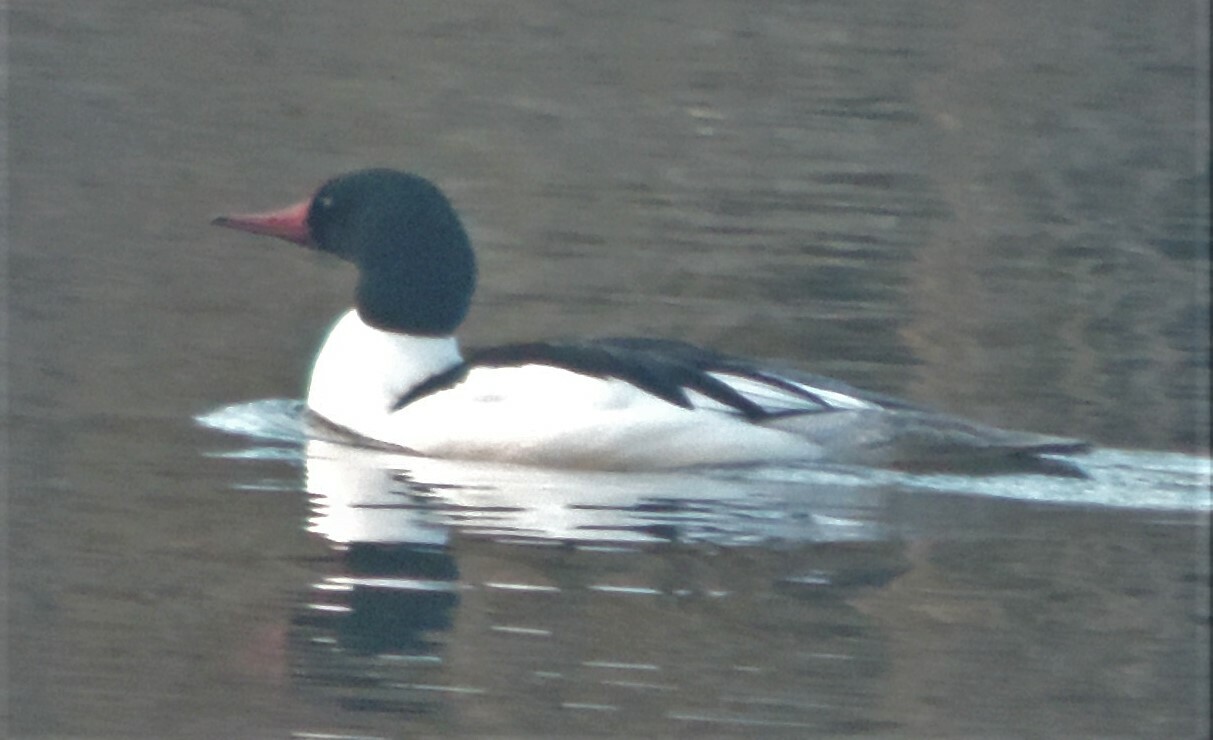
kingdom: Animalia
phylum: Chordata
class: Aves
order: Anseriformes
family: Anatidae
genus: Mergus
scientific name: Mergus merganser
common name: Common merganser
